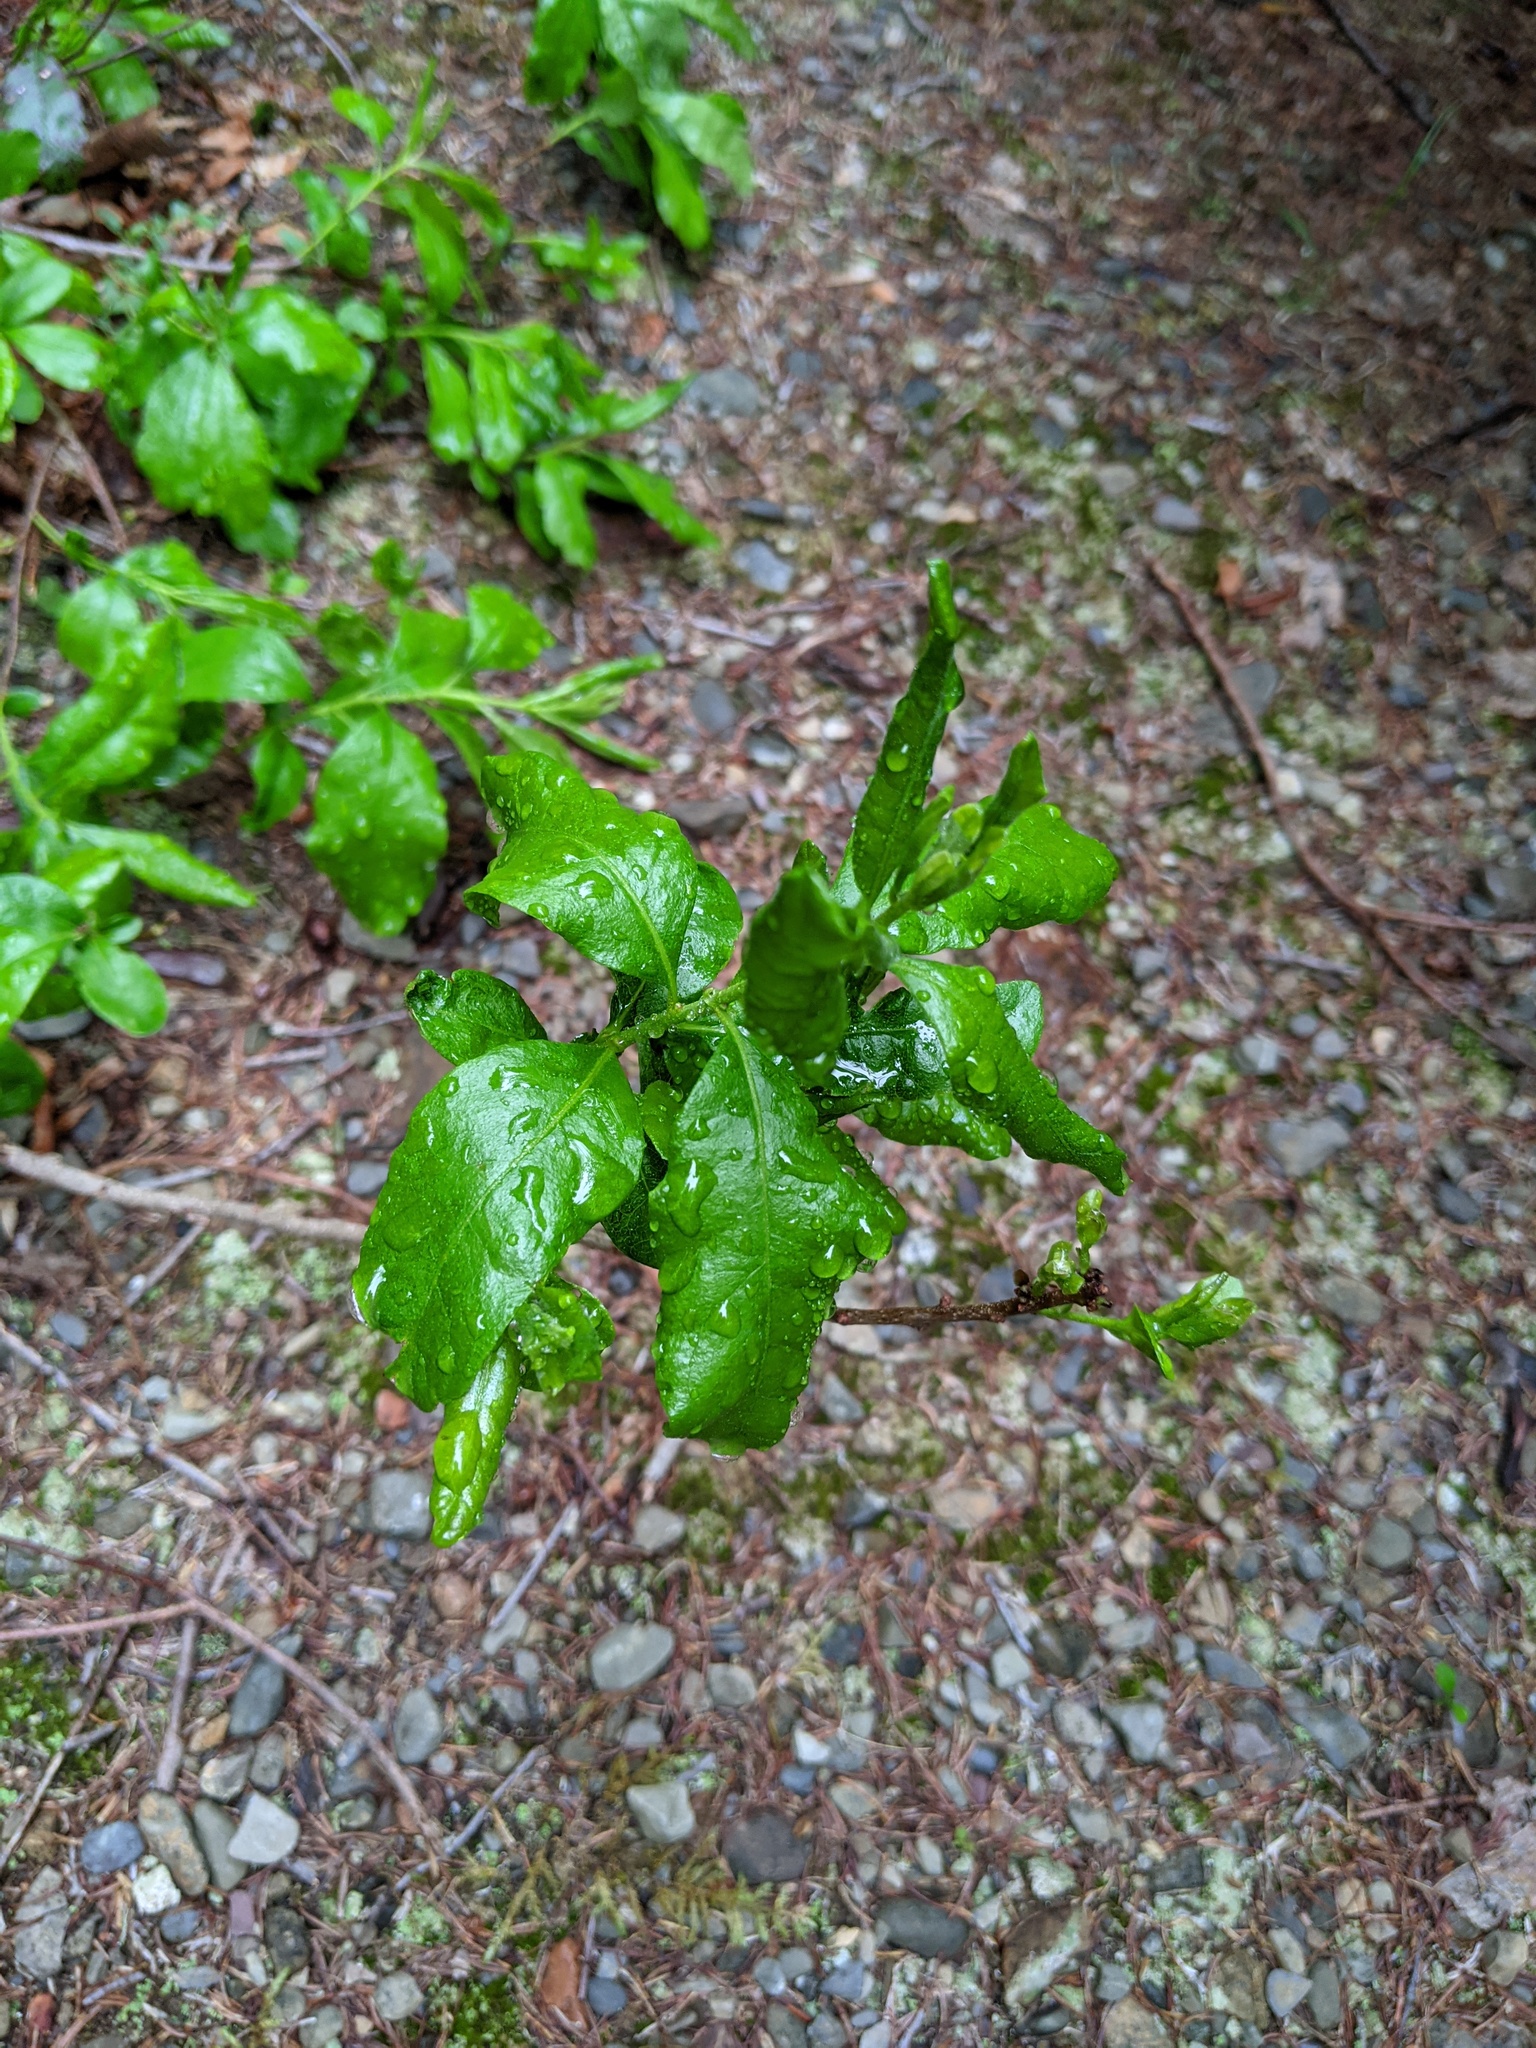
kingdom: Plantae
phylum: Tracheophyta
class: Magnoliopsida
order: Fagales
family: Myricaceae
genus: Morella
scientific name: Morella pensylvanica
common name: Northern bayberry
